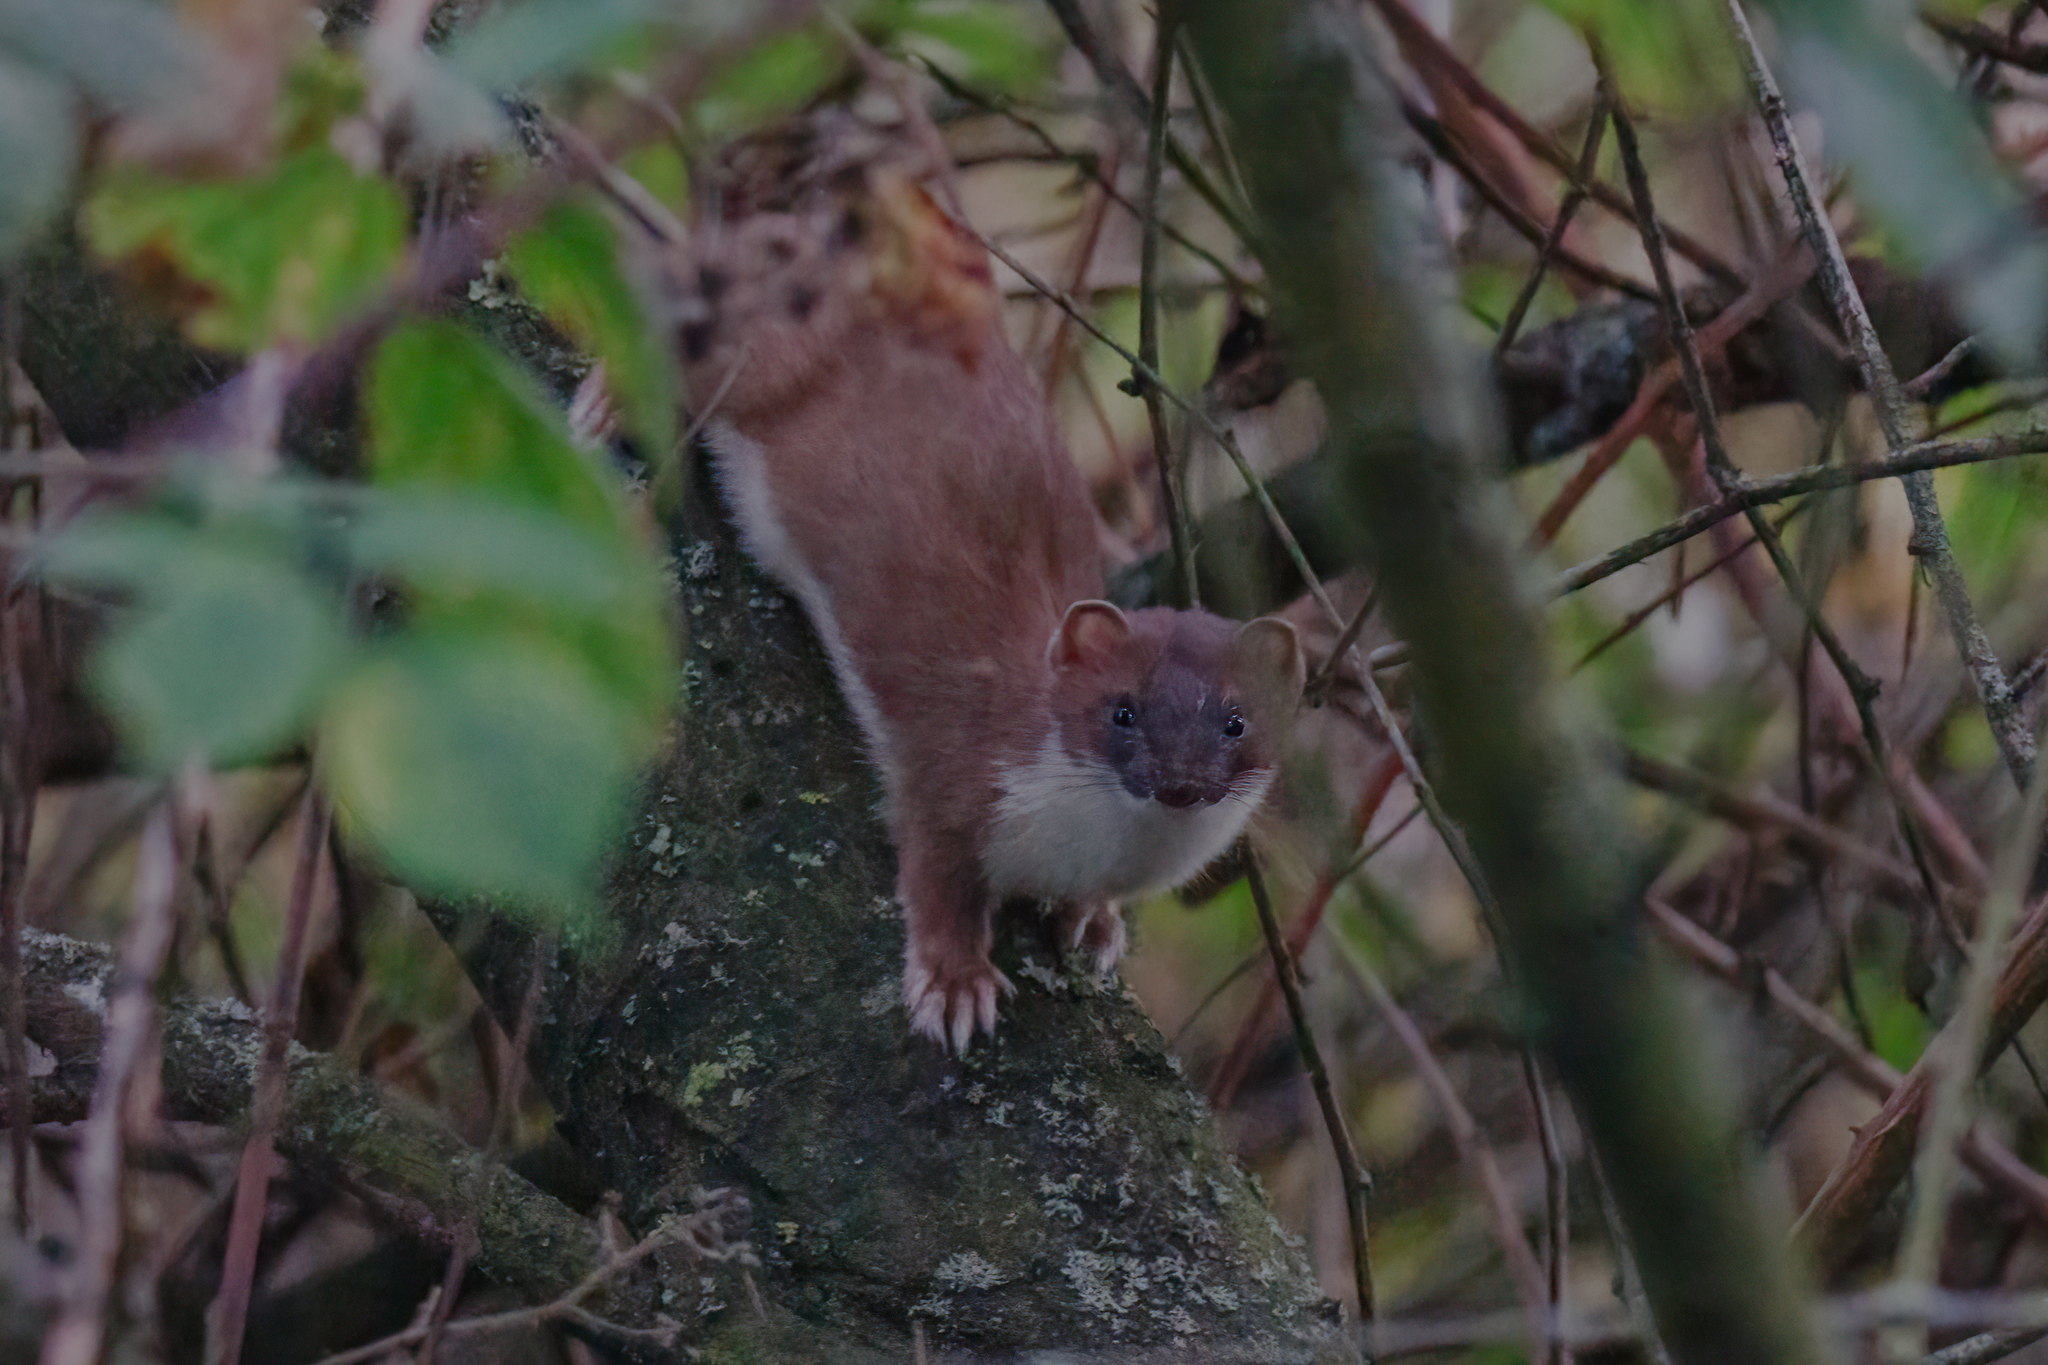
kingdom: Animalia
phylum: Chordata
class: Mammalia
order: Carnivora
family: Mustelidae
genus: Mustela
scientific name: Mustela erminea
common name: Stoat
